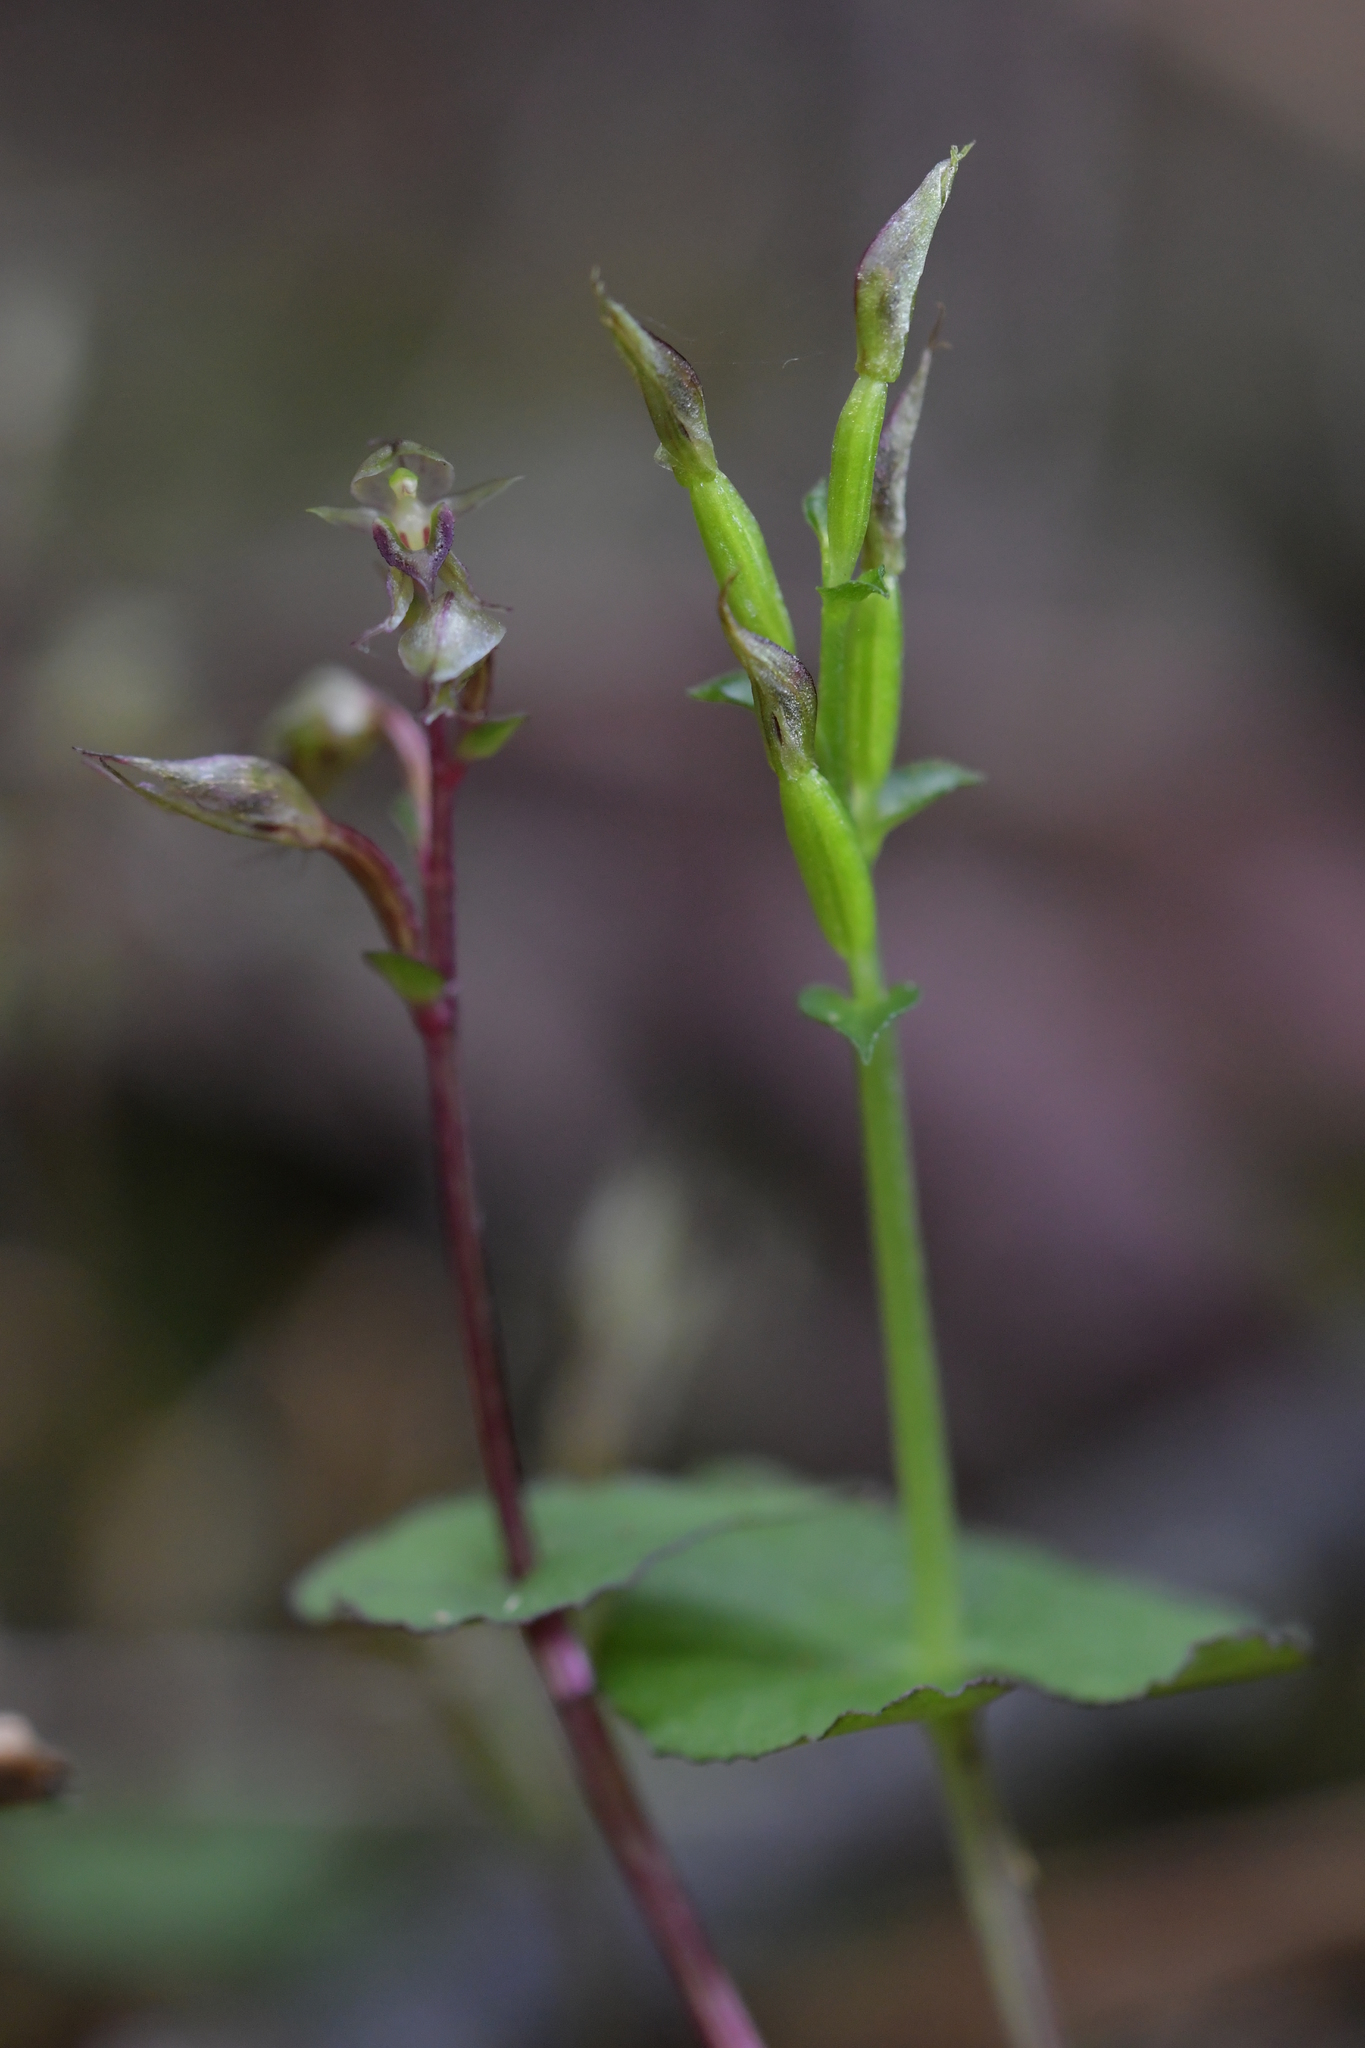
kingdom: Plantae
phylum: Tracheophyta
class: Liliopsida
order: Asparagales
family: Orchidaceae
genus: Acianthus
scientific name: Acianthus sinclairii
